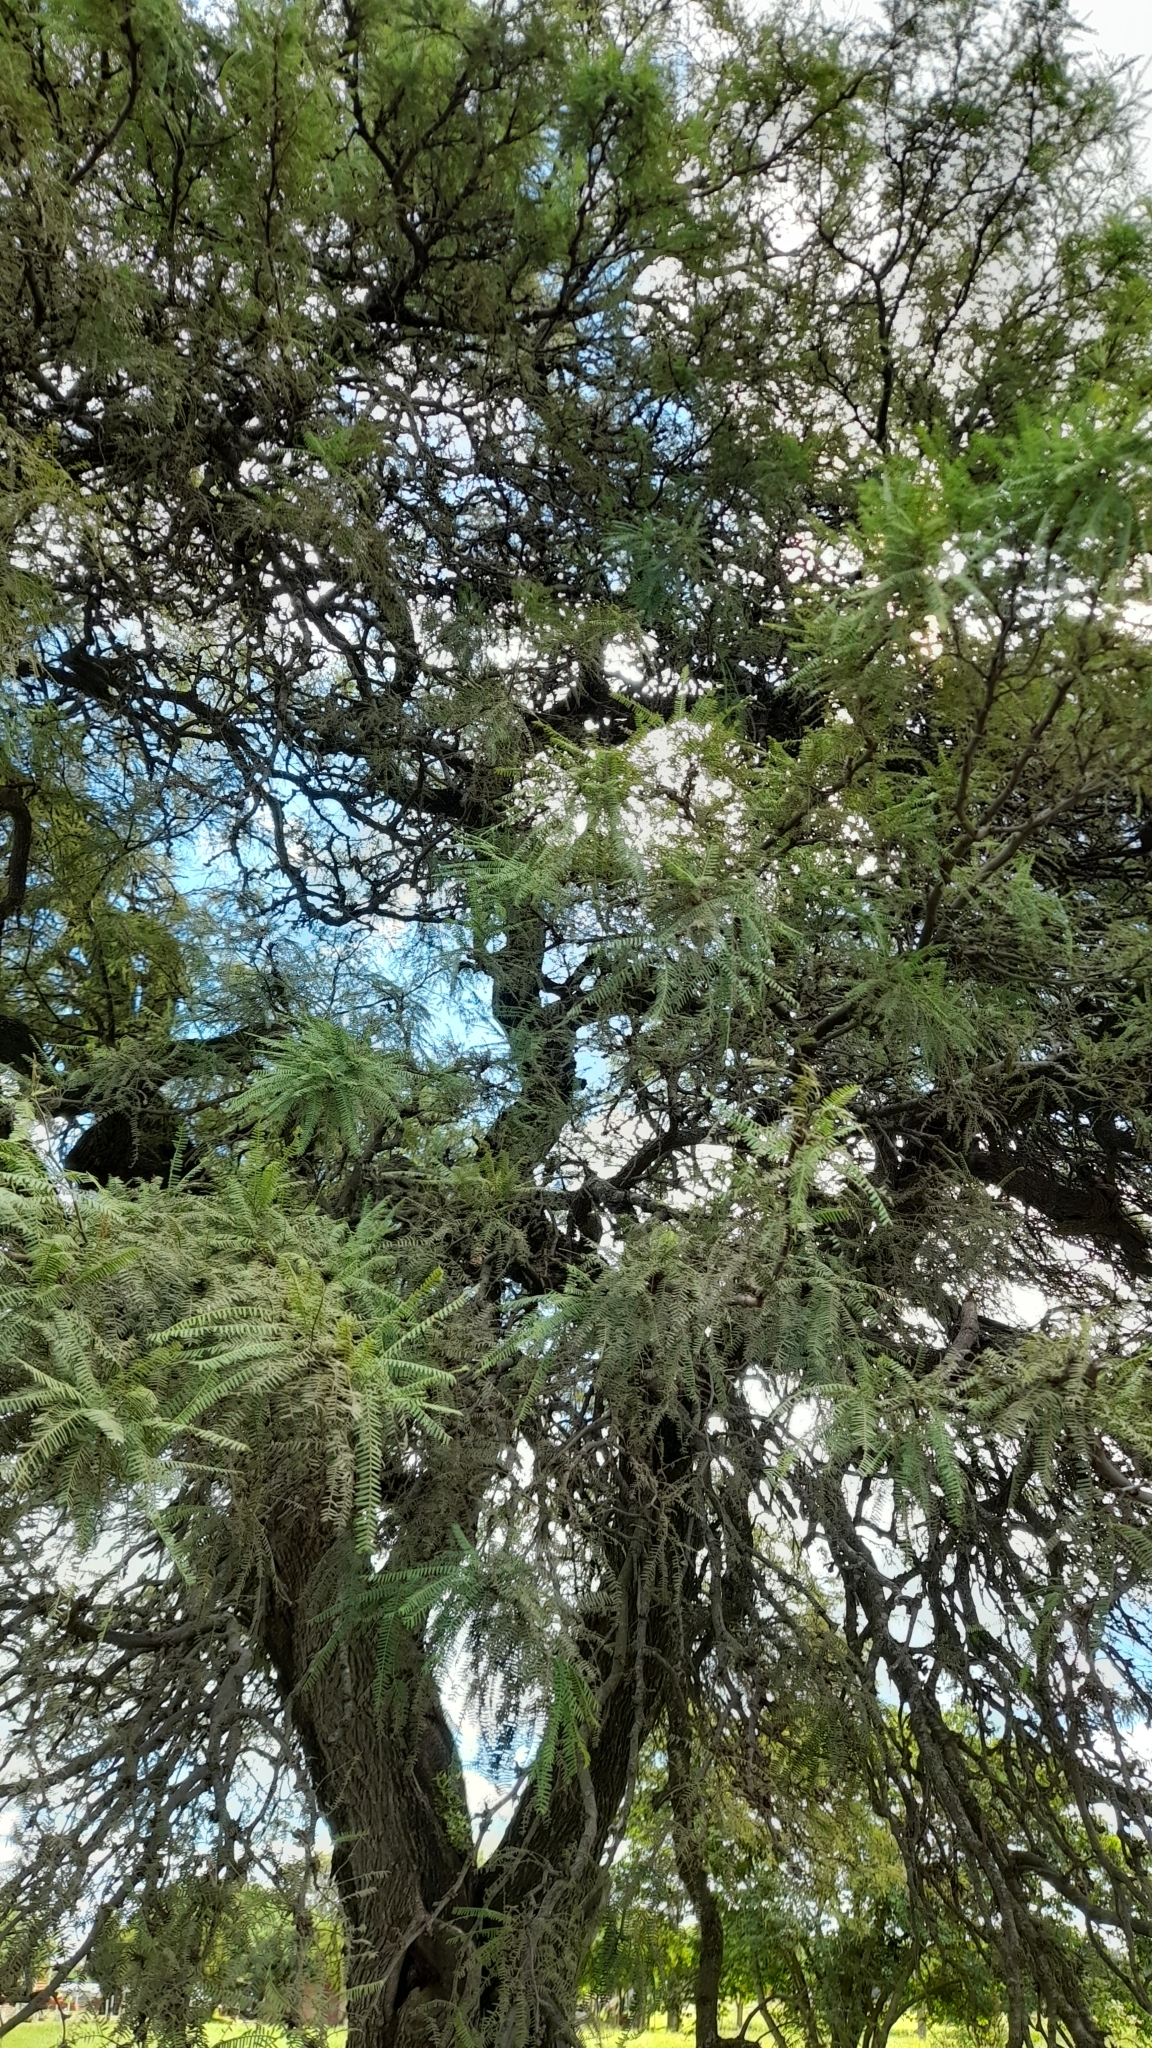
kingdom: Plantae
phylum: Tracheophyta
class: Magnoliopsida
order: Fabales
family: Fabaceae
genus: Prosopis
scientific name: Prosopis alba
